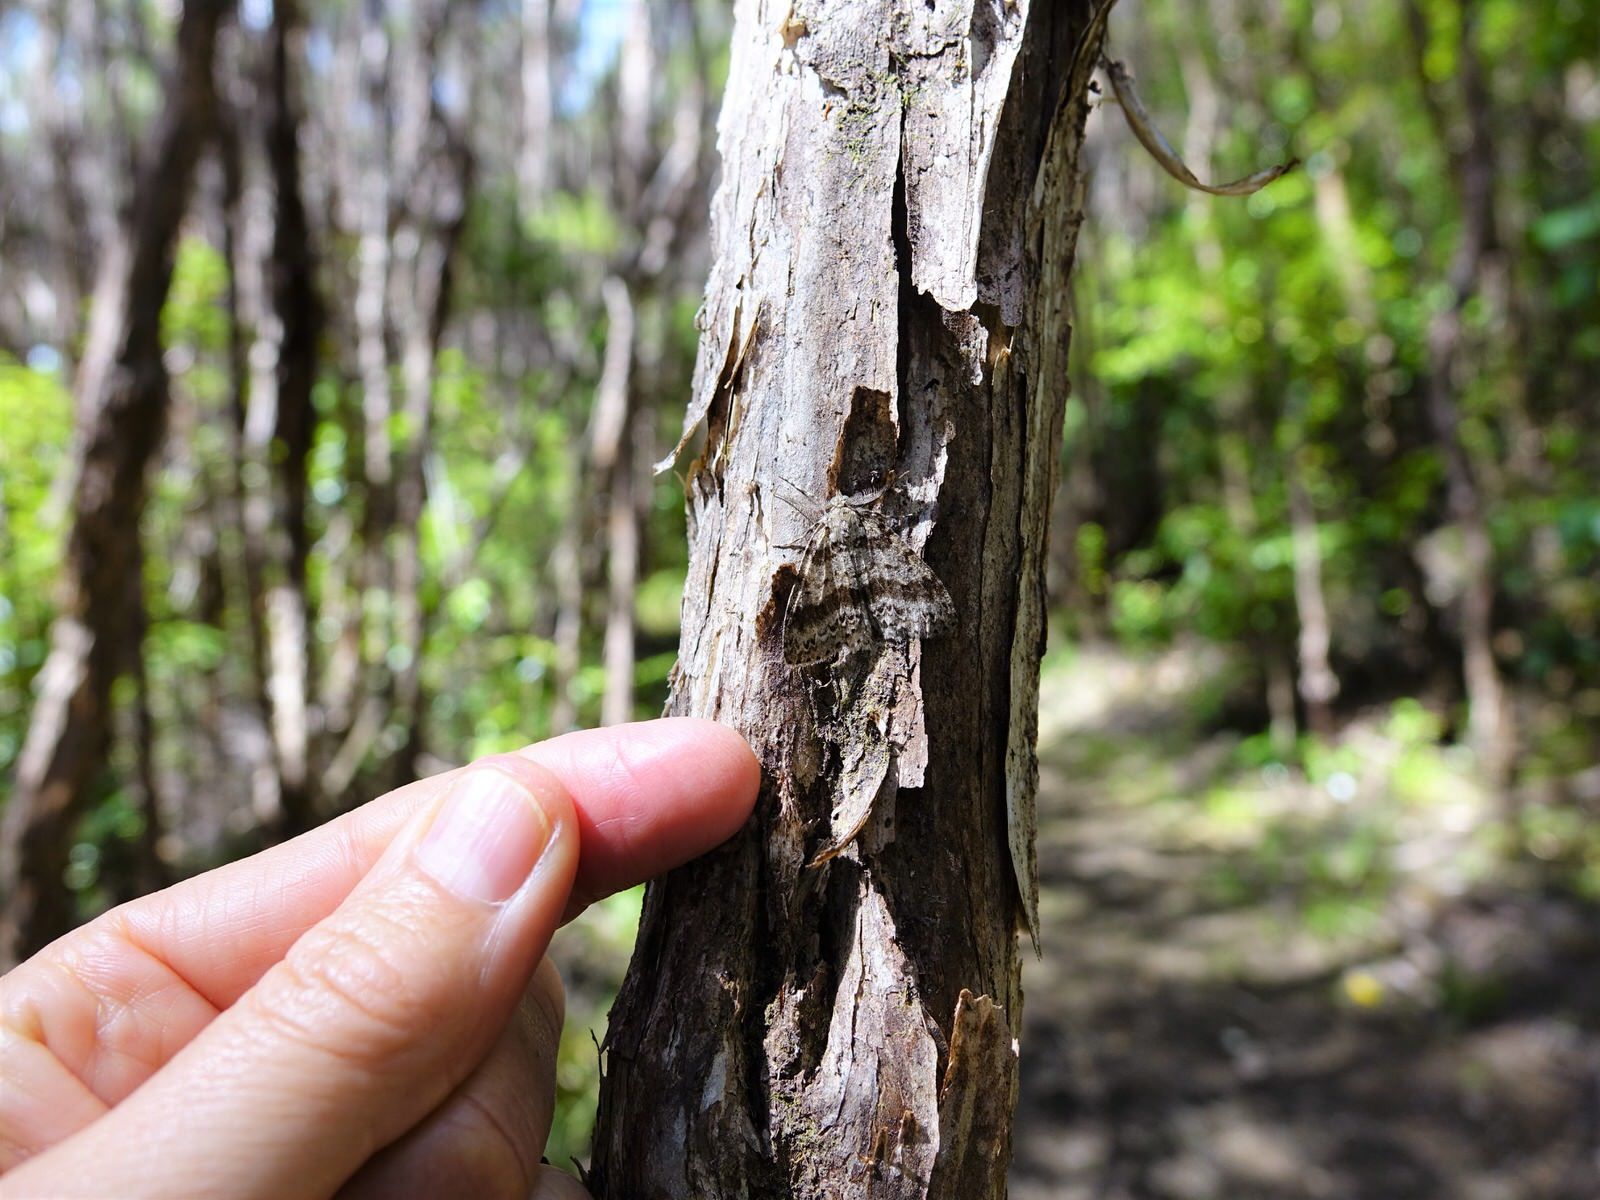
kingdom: Animalia
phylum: Arthropoda
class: Insecta
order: Lepidoptera
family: Geometridae
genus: Pseudocoremia
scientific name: Pseudocoremia fenerata
